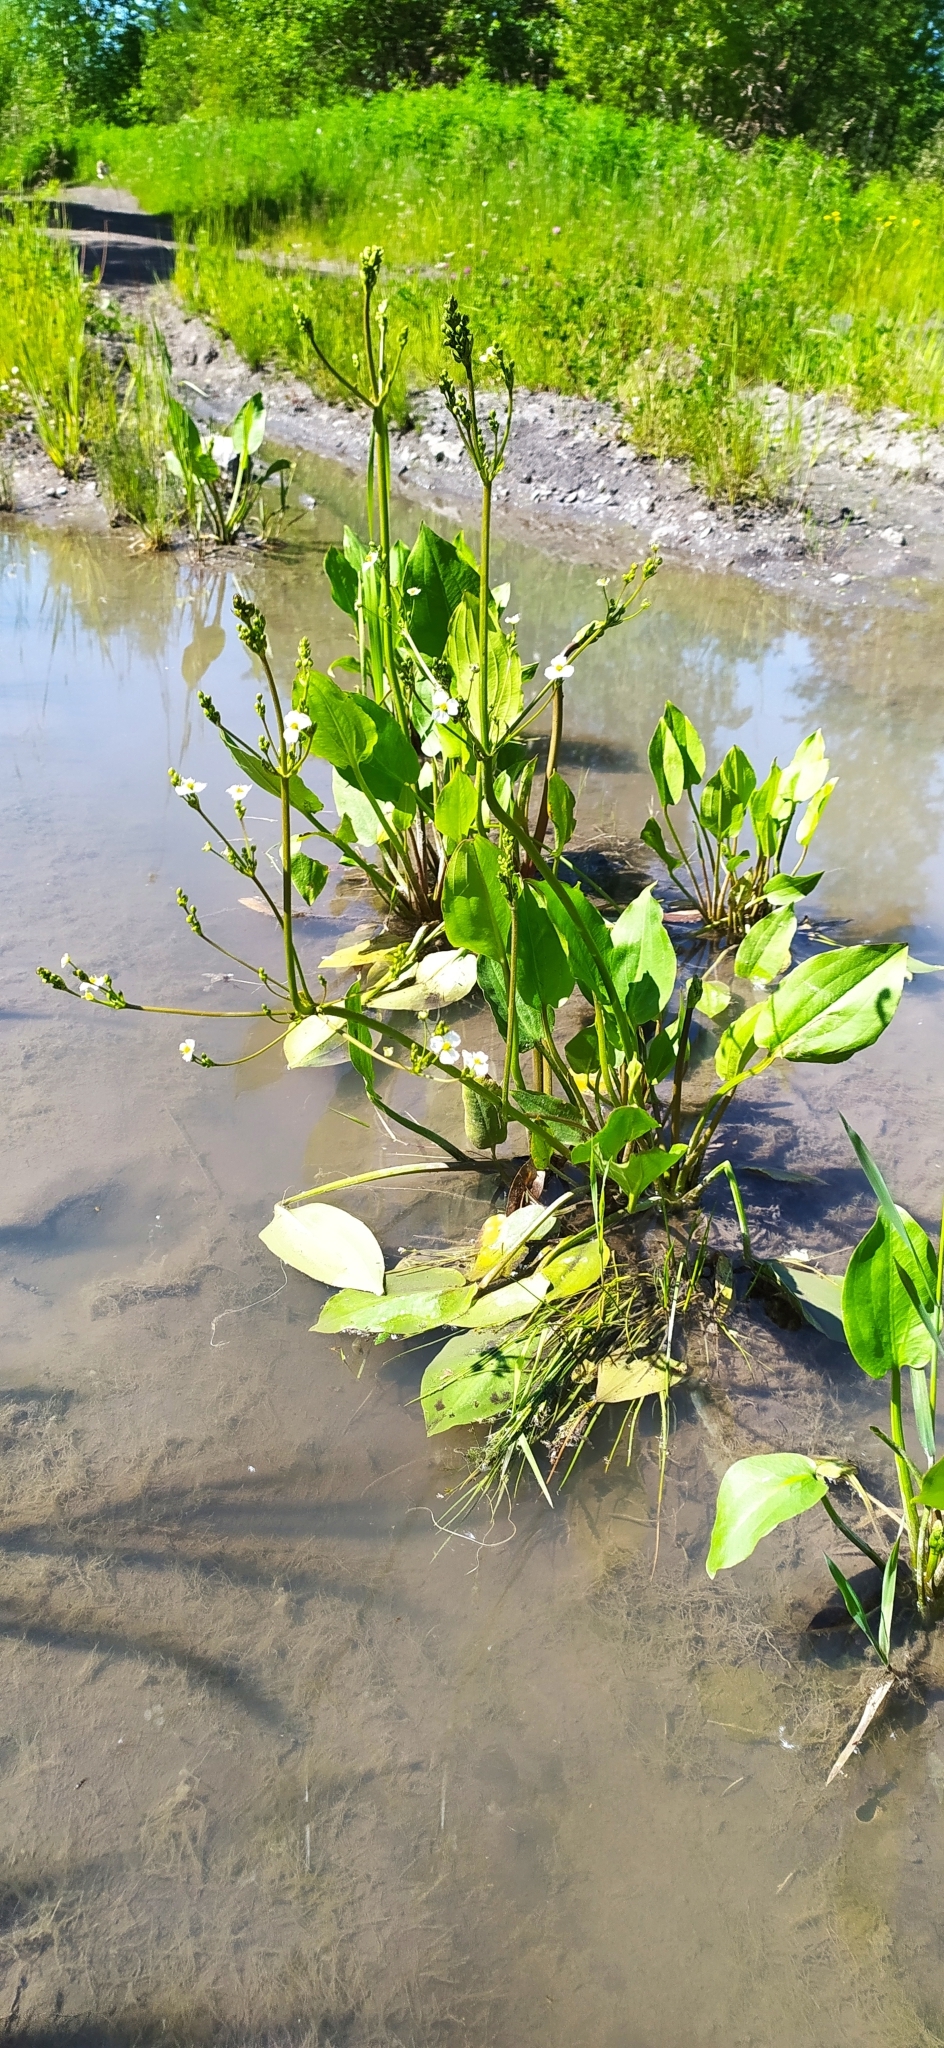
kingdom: Plantae
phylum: Tracheophyta
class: Liliopsida
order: Alismatales
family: Alismataceae
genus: Alisma
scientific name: Alisma plantago-aquatica
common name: Water-plantain
